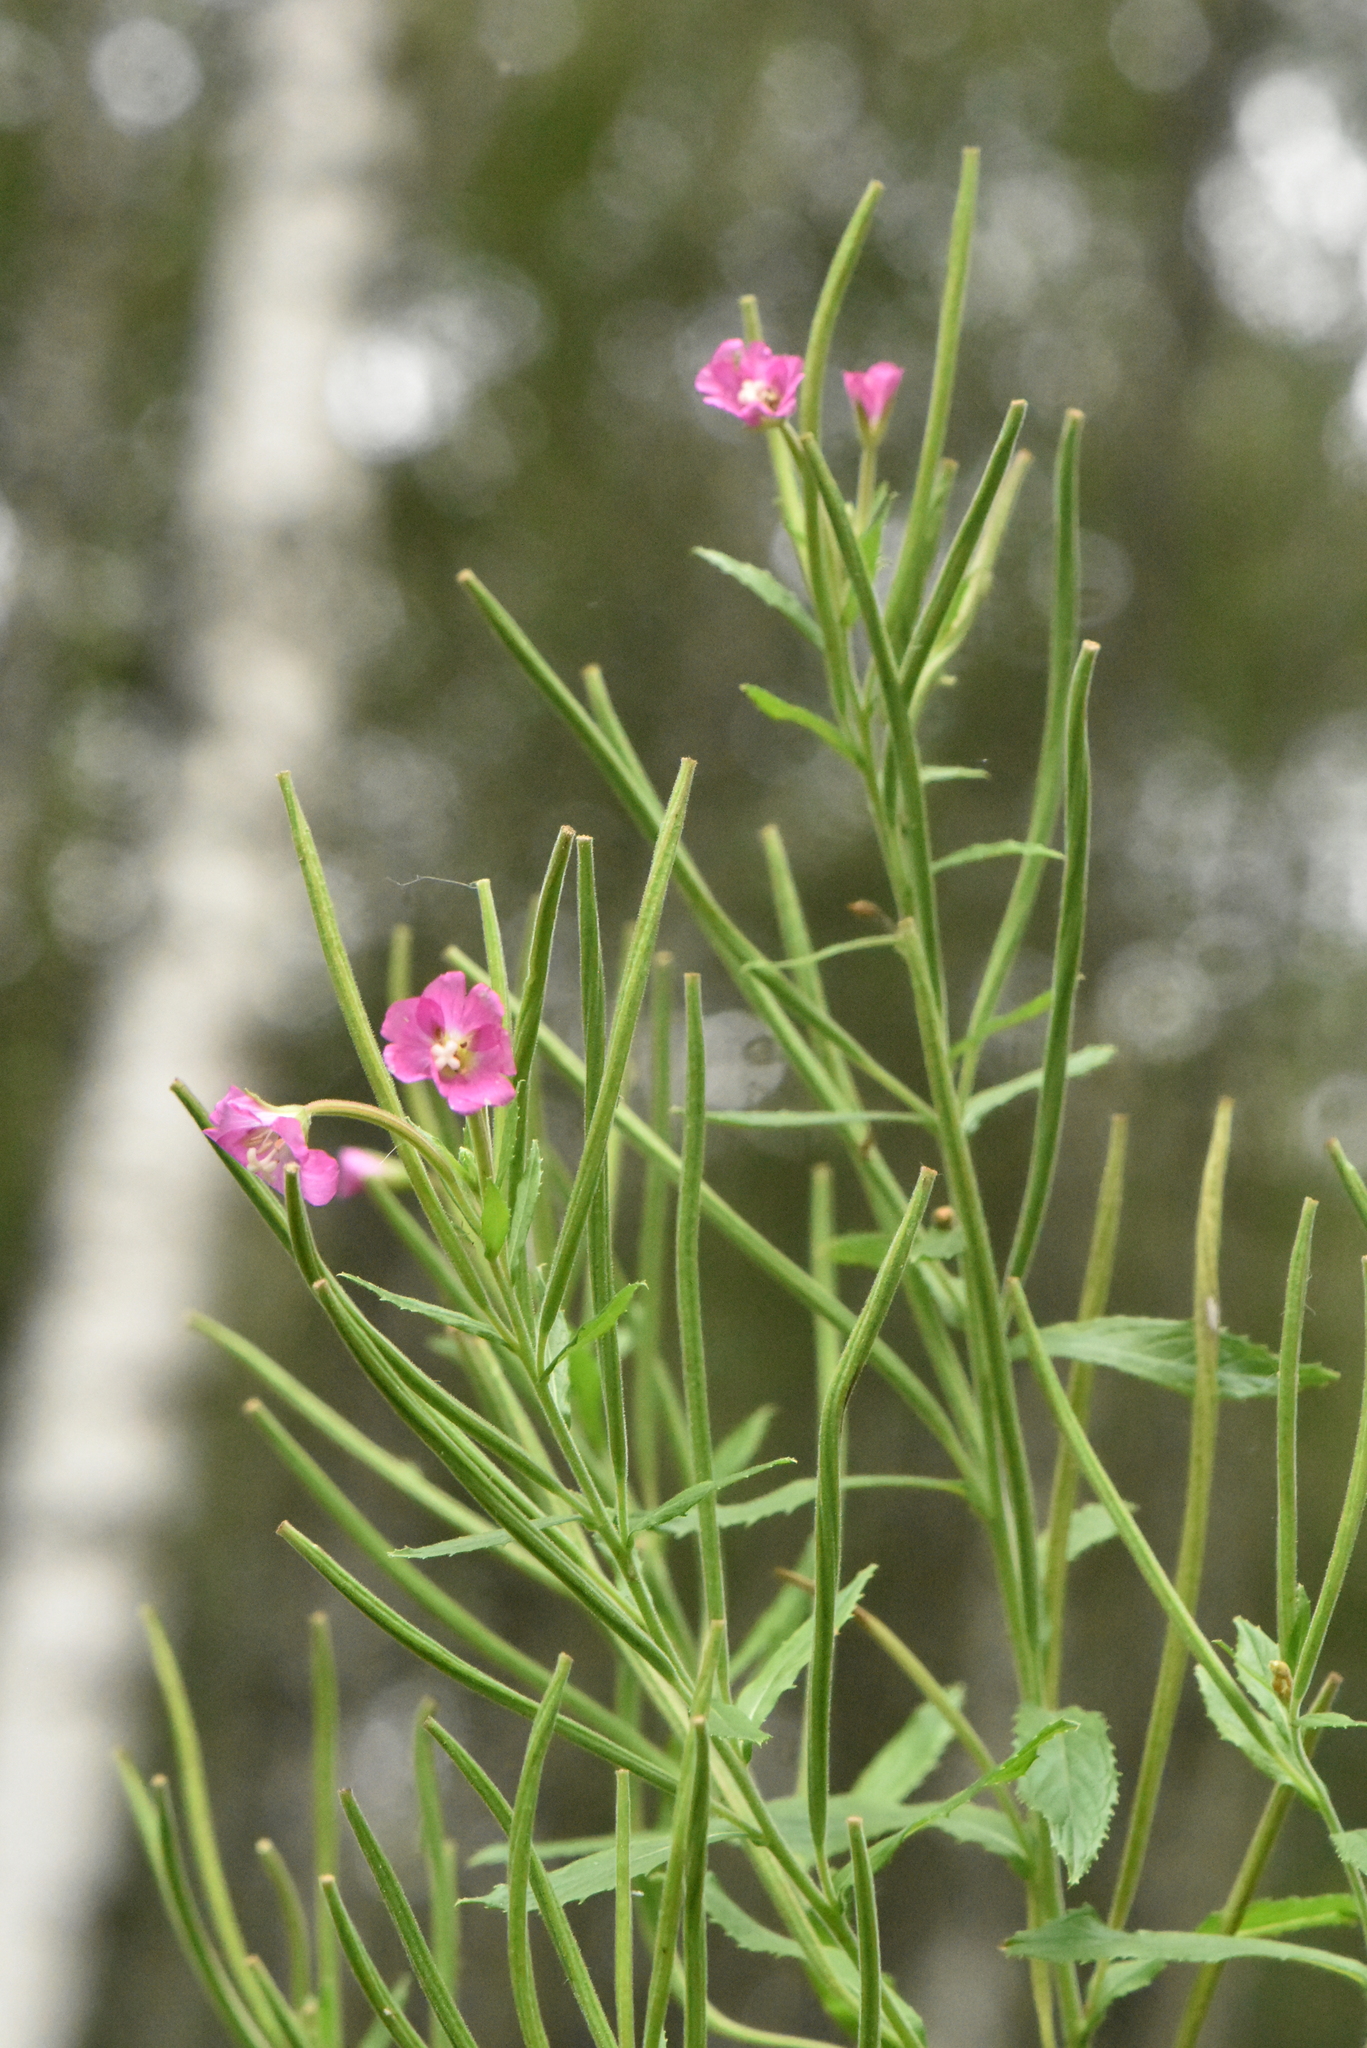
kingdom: Plantae
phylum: Tracheophyta
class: Magnoliopsida
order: Myrtales
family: Onagraceae
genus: Epilobium
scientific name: Epilobium hirsutum
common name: Great willowherb
